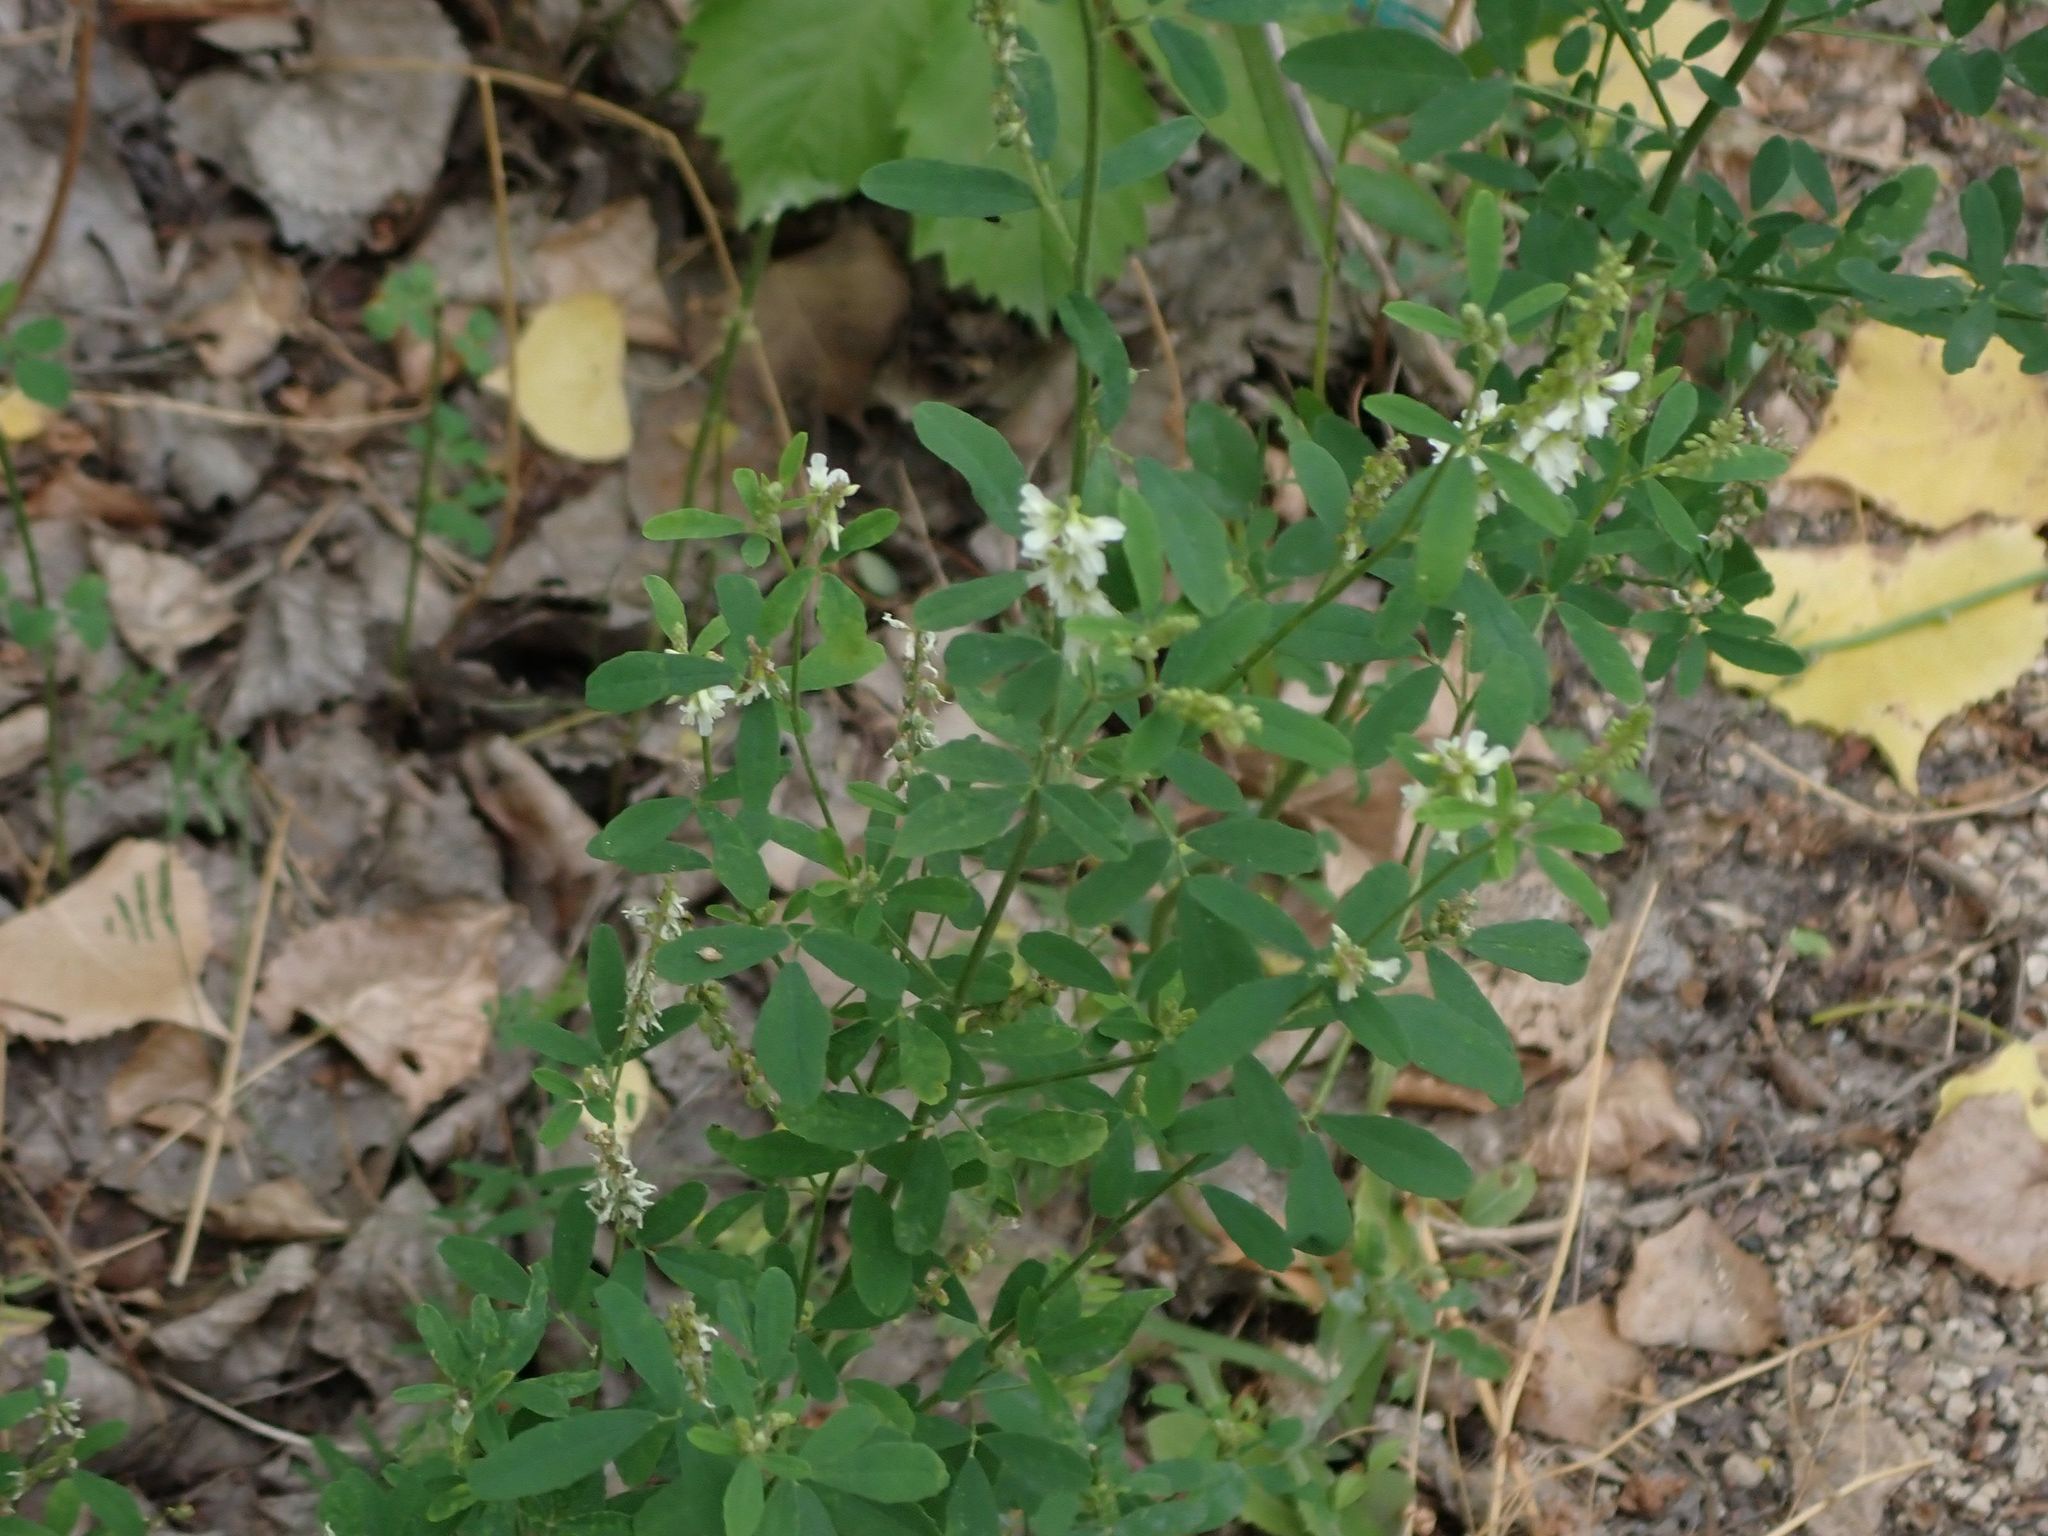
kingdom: Plantae
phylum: Tracheophyta
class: Magnoliopsida
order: Fabales
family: Fabaceae
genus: Melilotus
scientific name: Melilotus albus
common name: White melilot
